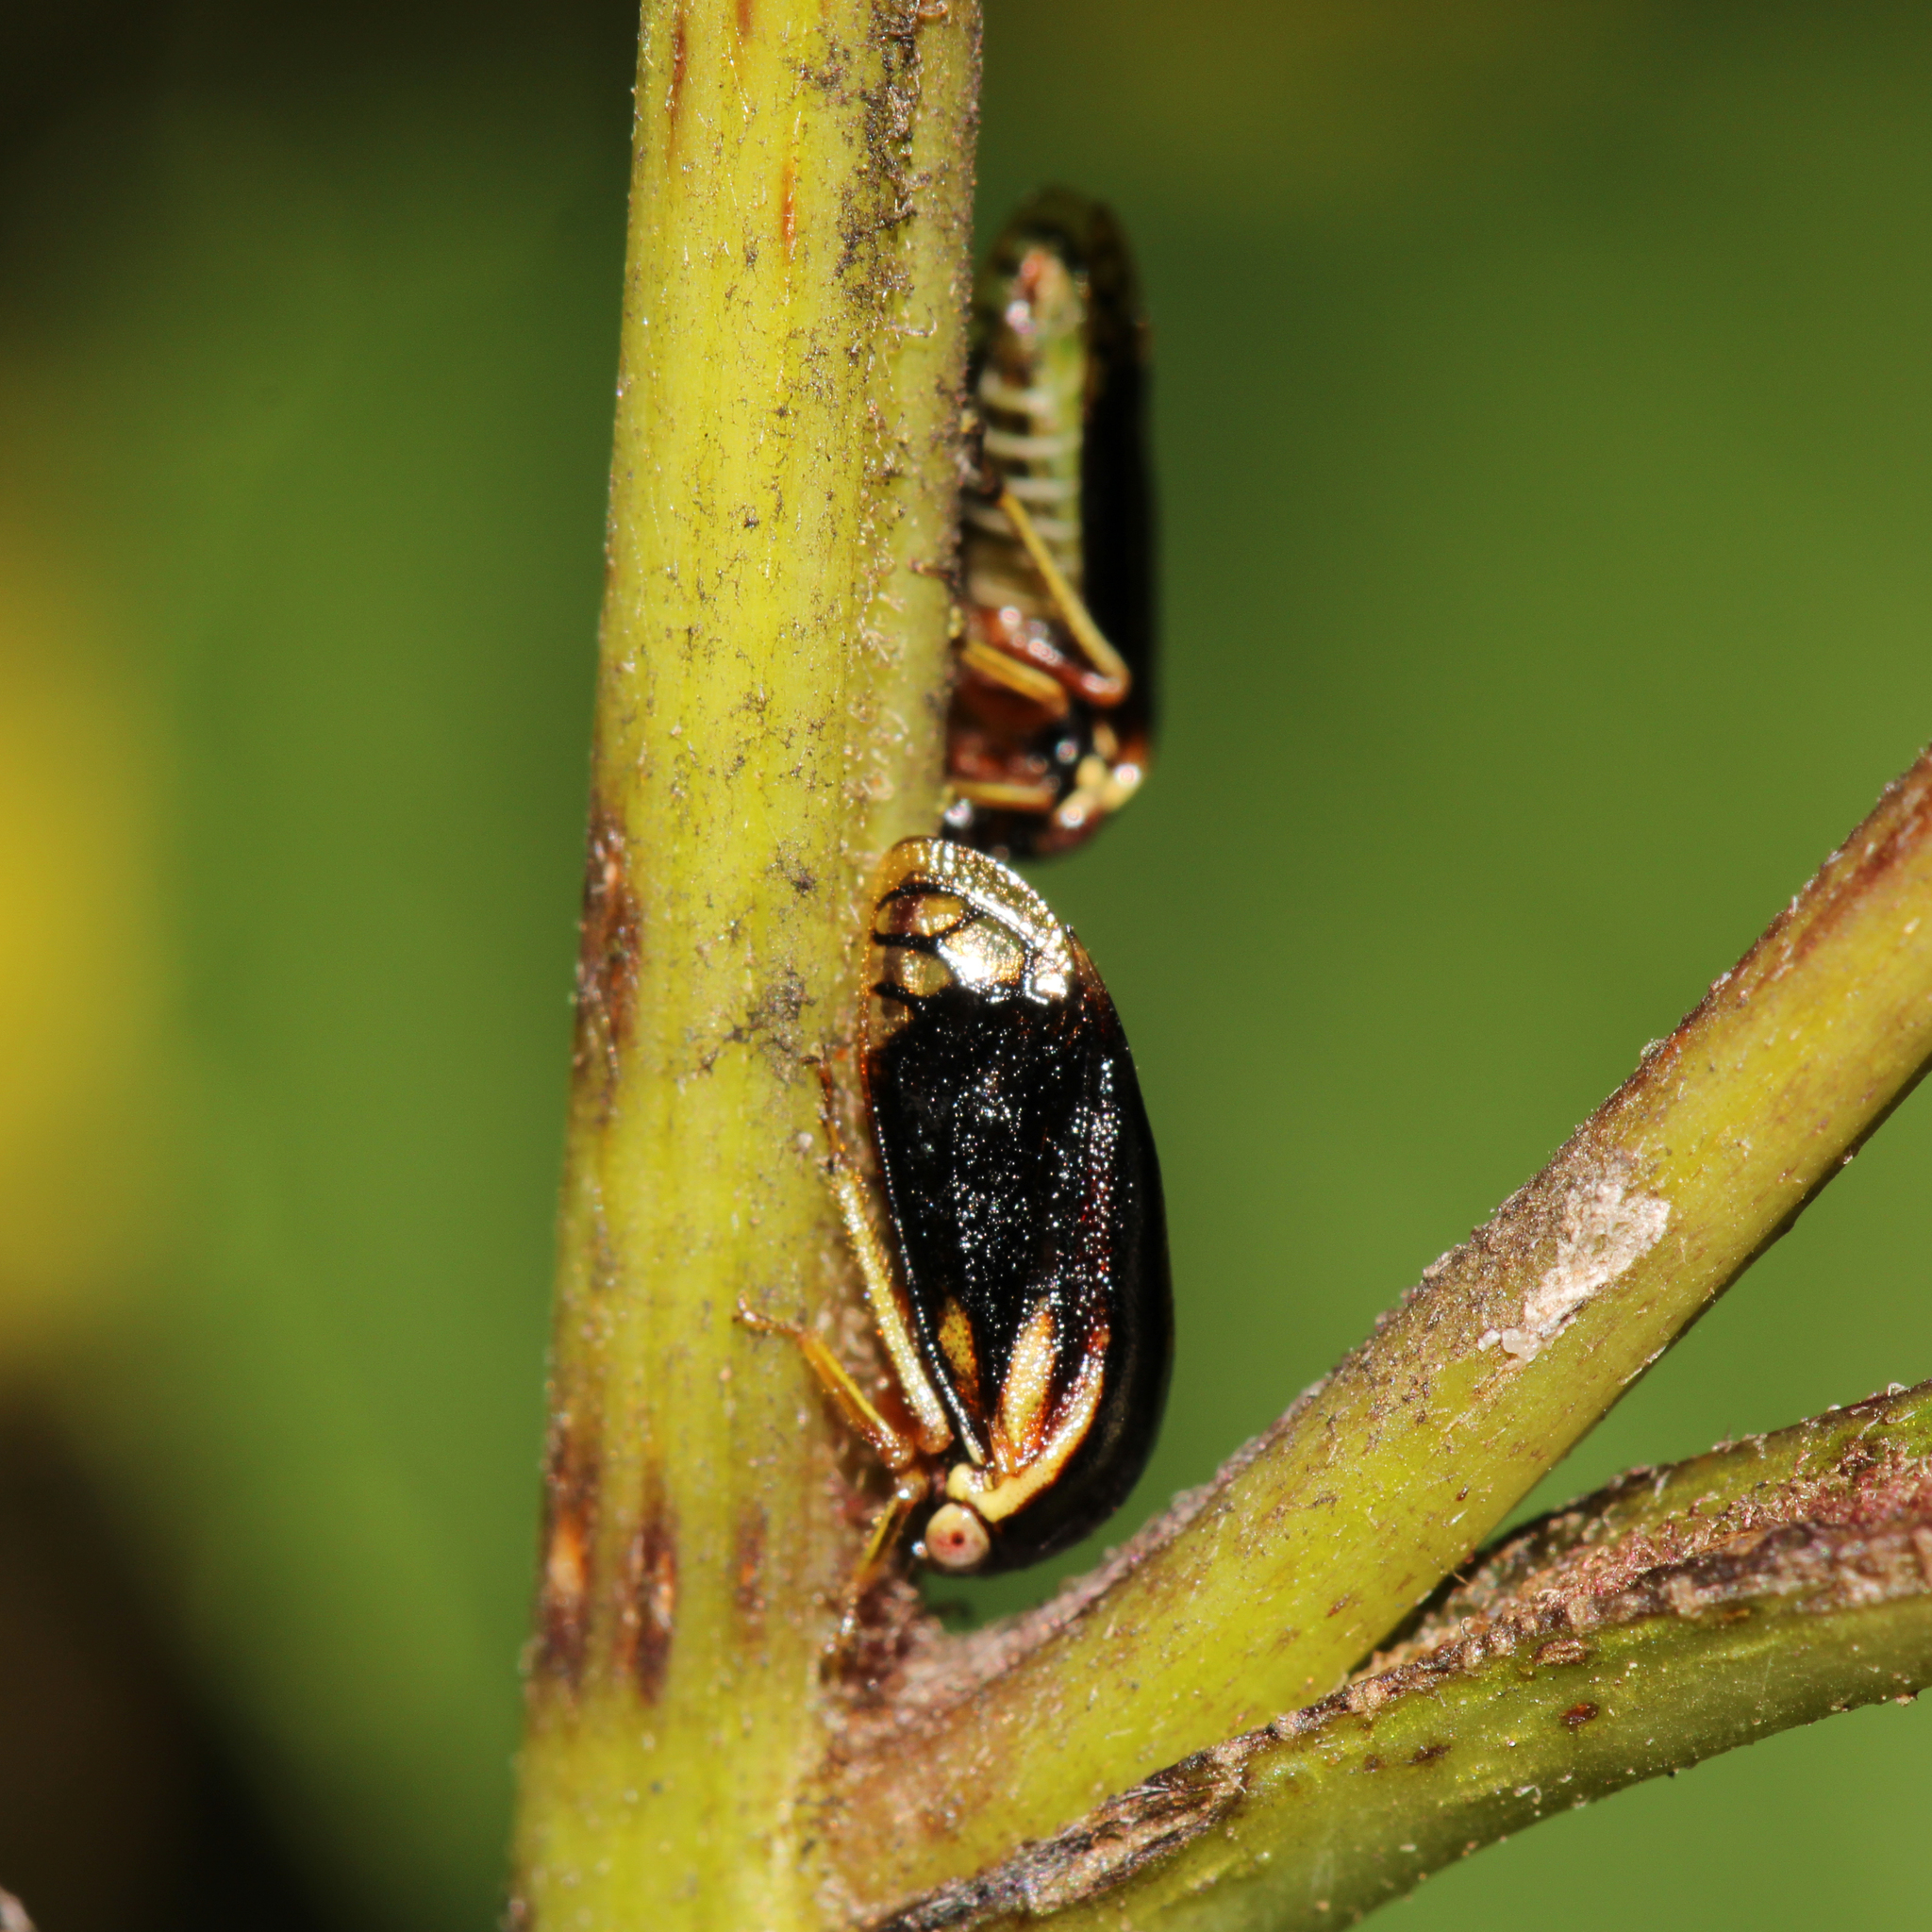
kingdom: Animalia
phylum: Arthropoda
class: Insecta
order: Hemiptera
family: Membracidae
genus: Acutalis
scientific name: Acutalis tartarea
